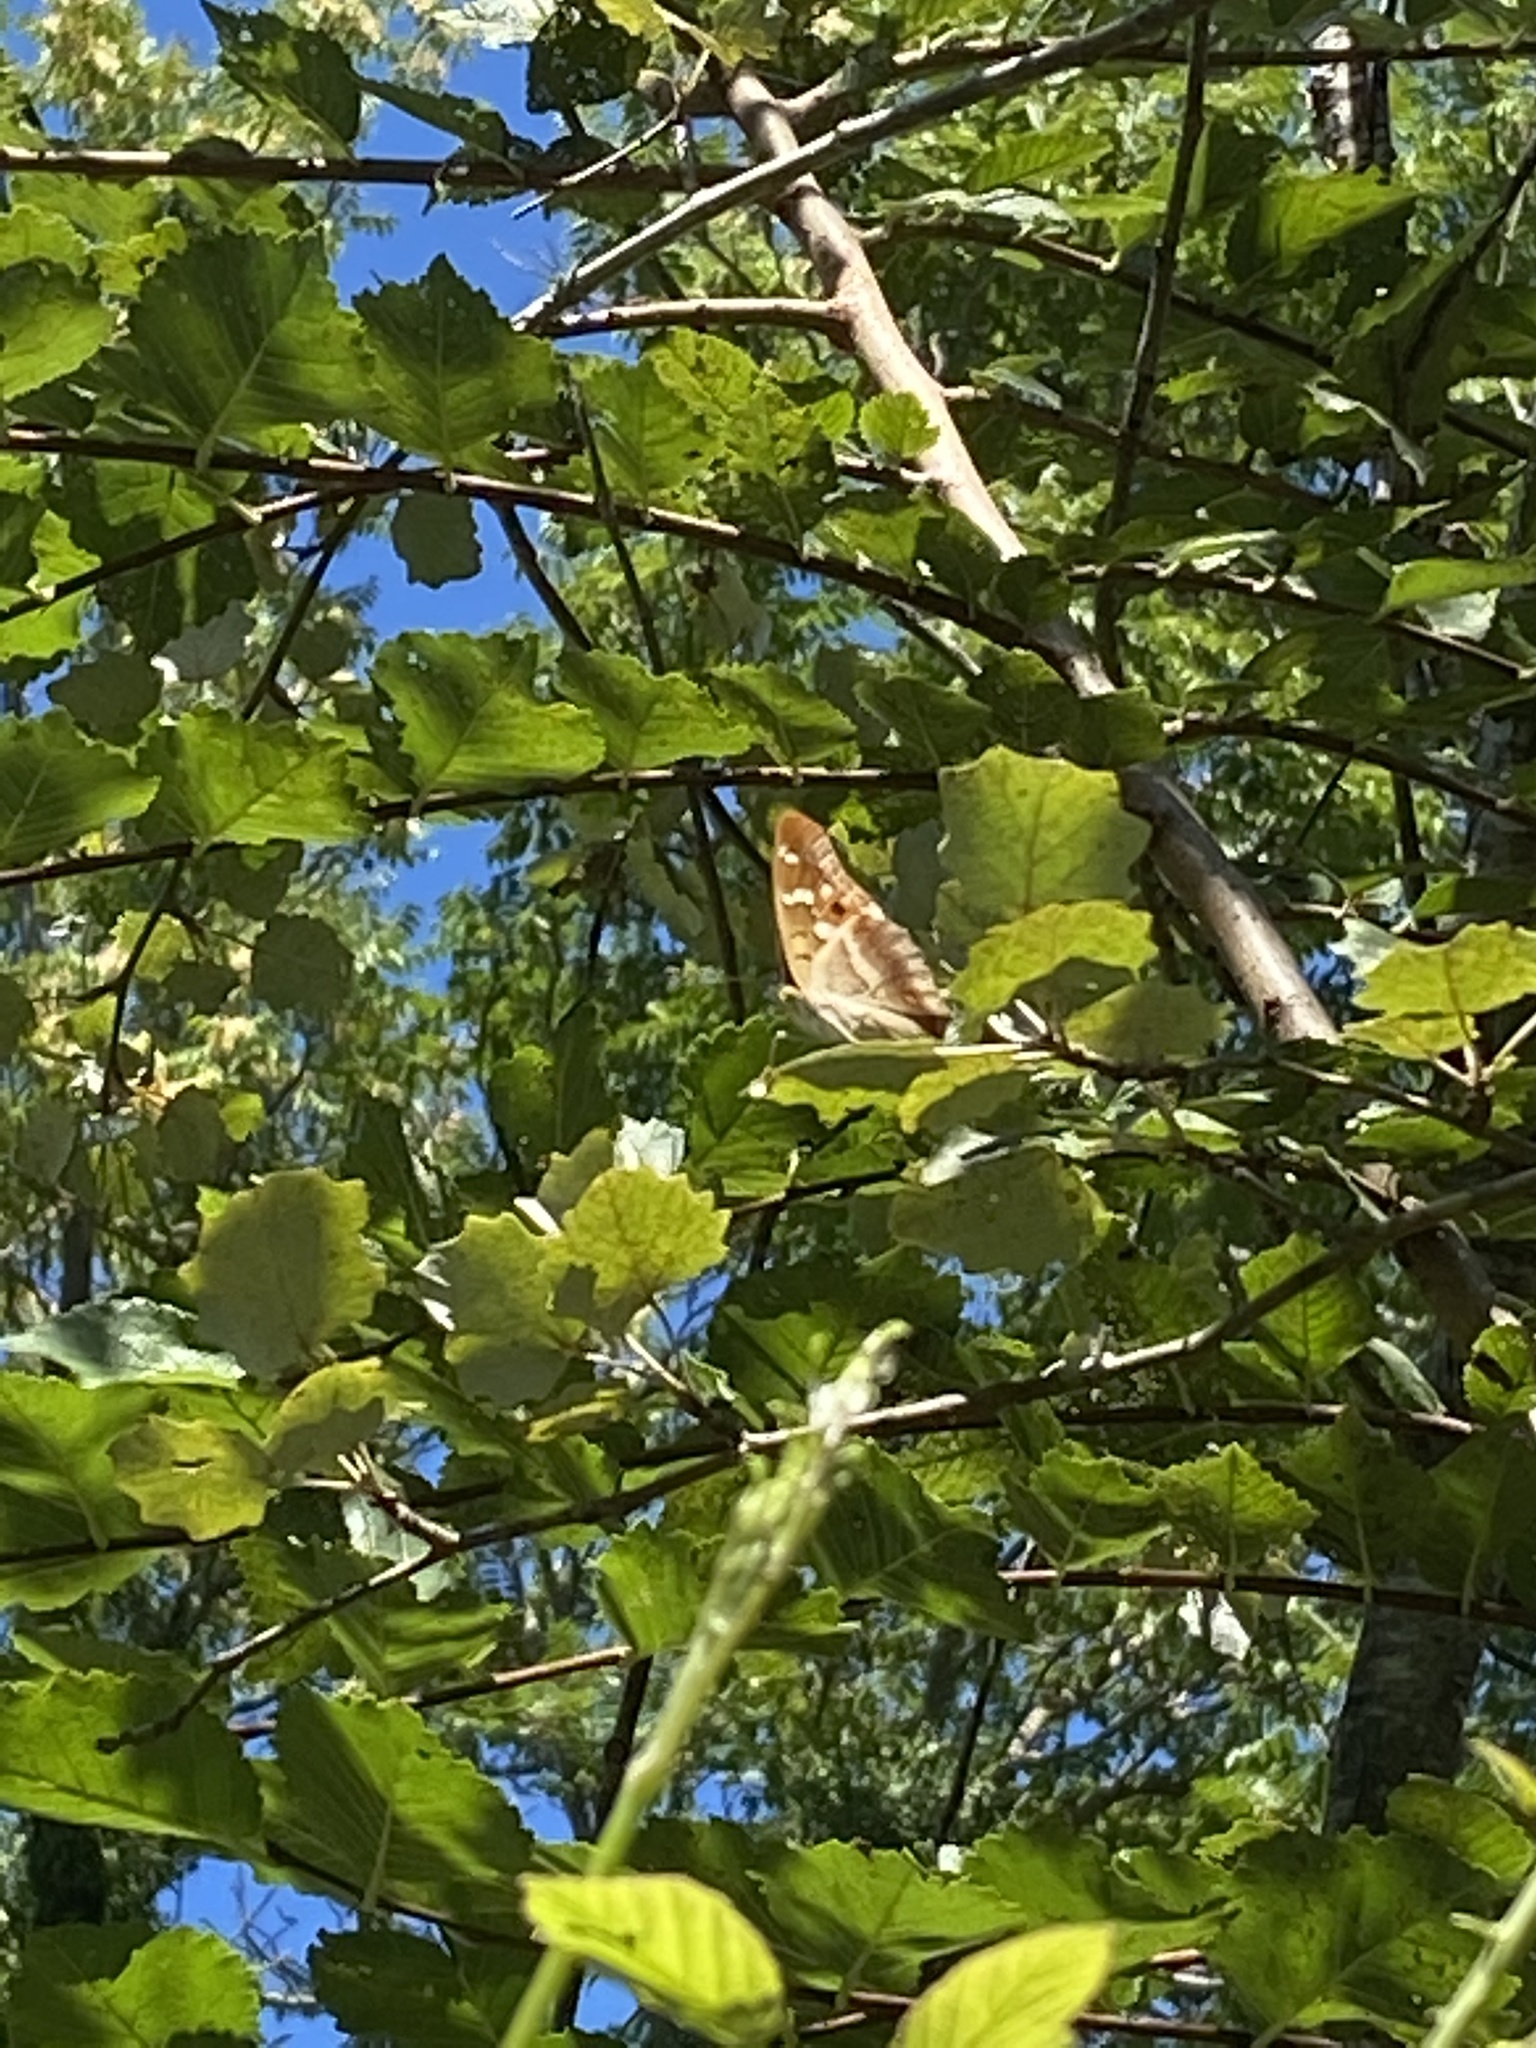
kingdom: Animalia
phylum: Arthropoda
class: Insecta
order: Lepidoptera
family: Nymphalidae
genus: Apatura
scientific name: Apatura ilia
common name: Lesser purple emperor
